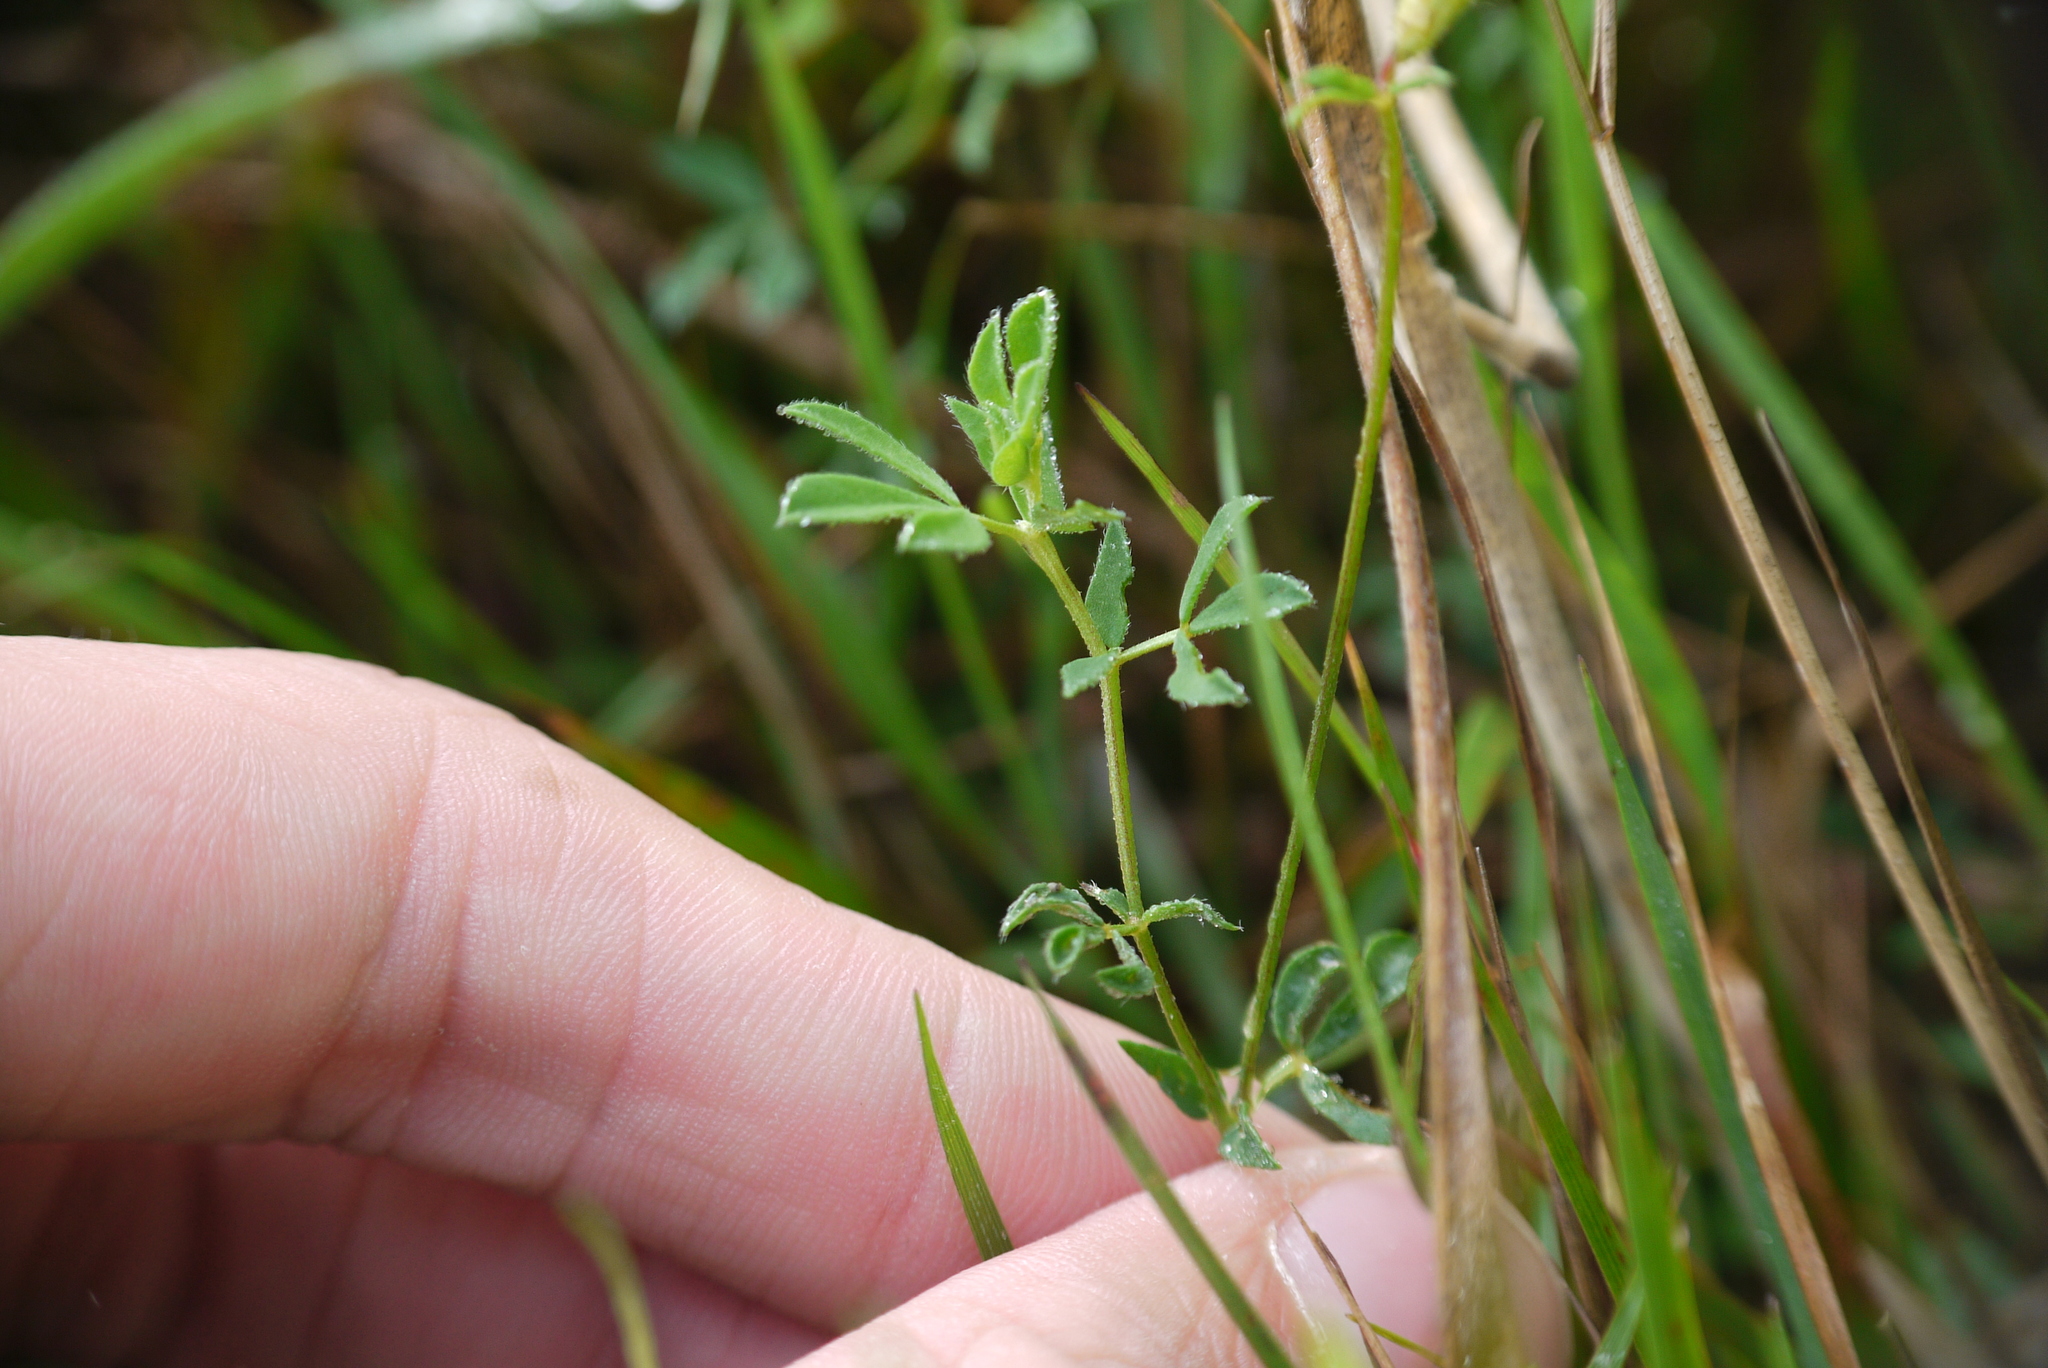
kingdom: Plantae
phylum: Tracheophyta
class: Magnoliopsida
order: Fabales
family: Fabaceae
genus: Lotus
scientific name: Lotus corniculatus
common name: Common bird's-foot-trefoil
